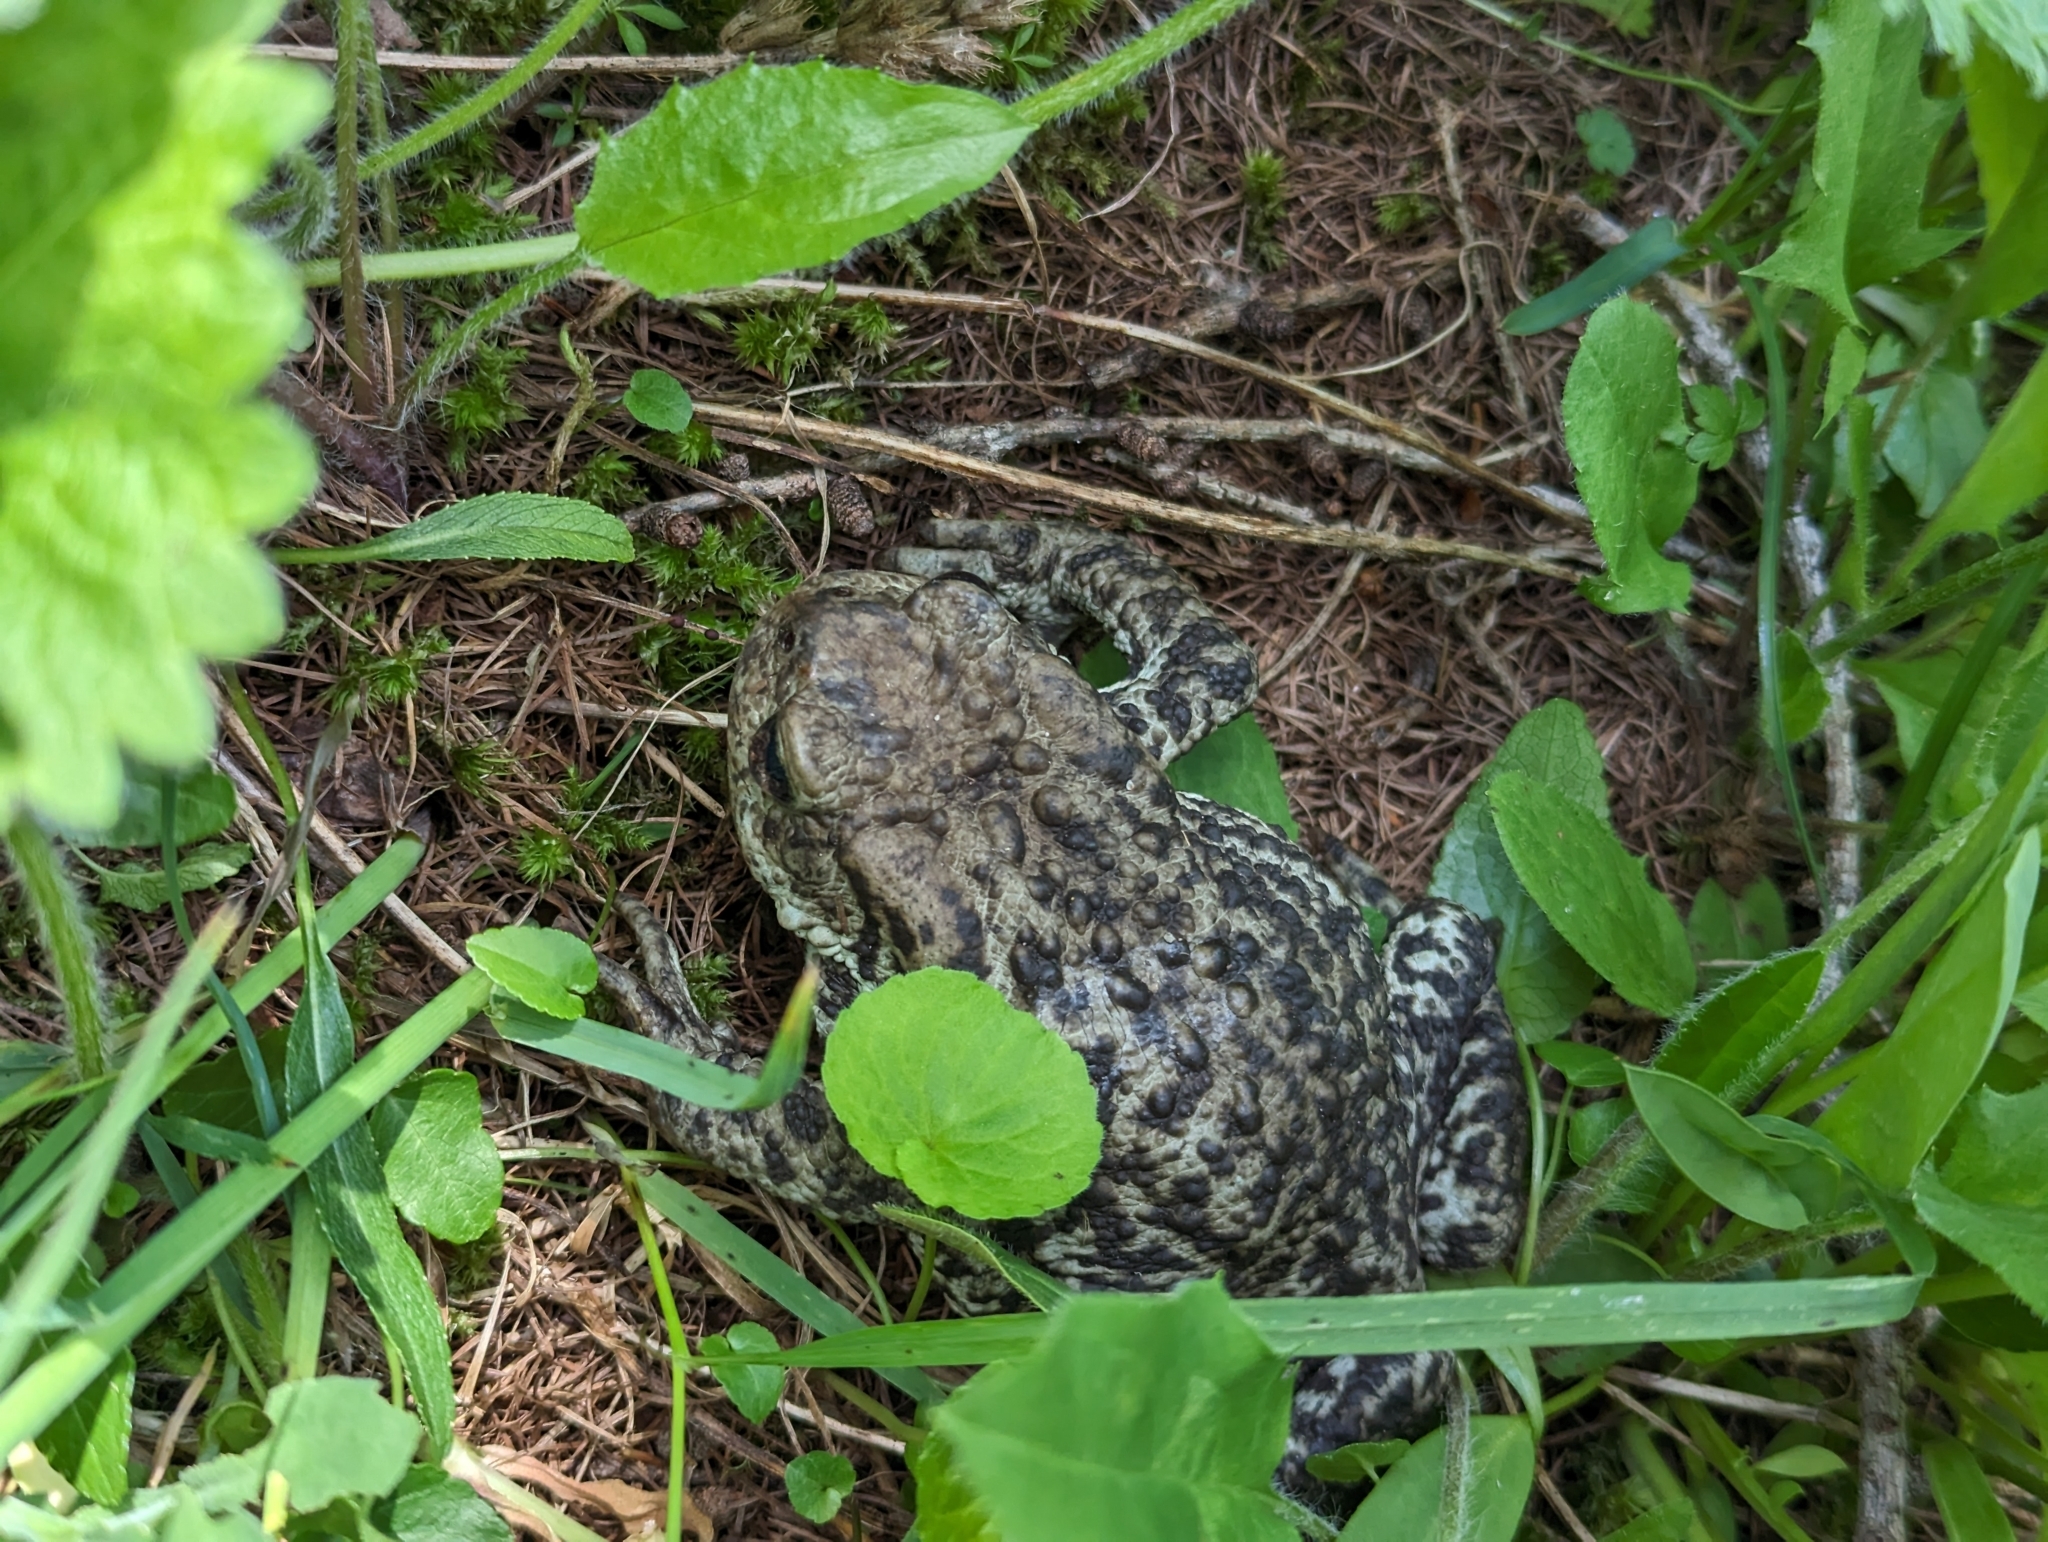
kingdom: Animalia
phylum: Chordata
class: Amphibia
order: Anura
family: Bufonidae
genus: Bufo
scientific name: Bufo bufo
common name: Common toad
